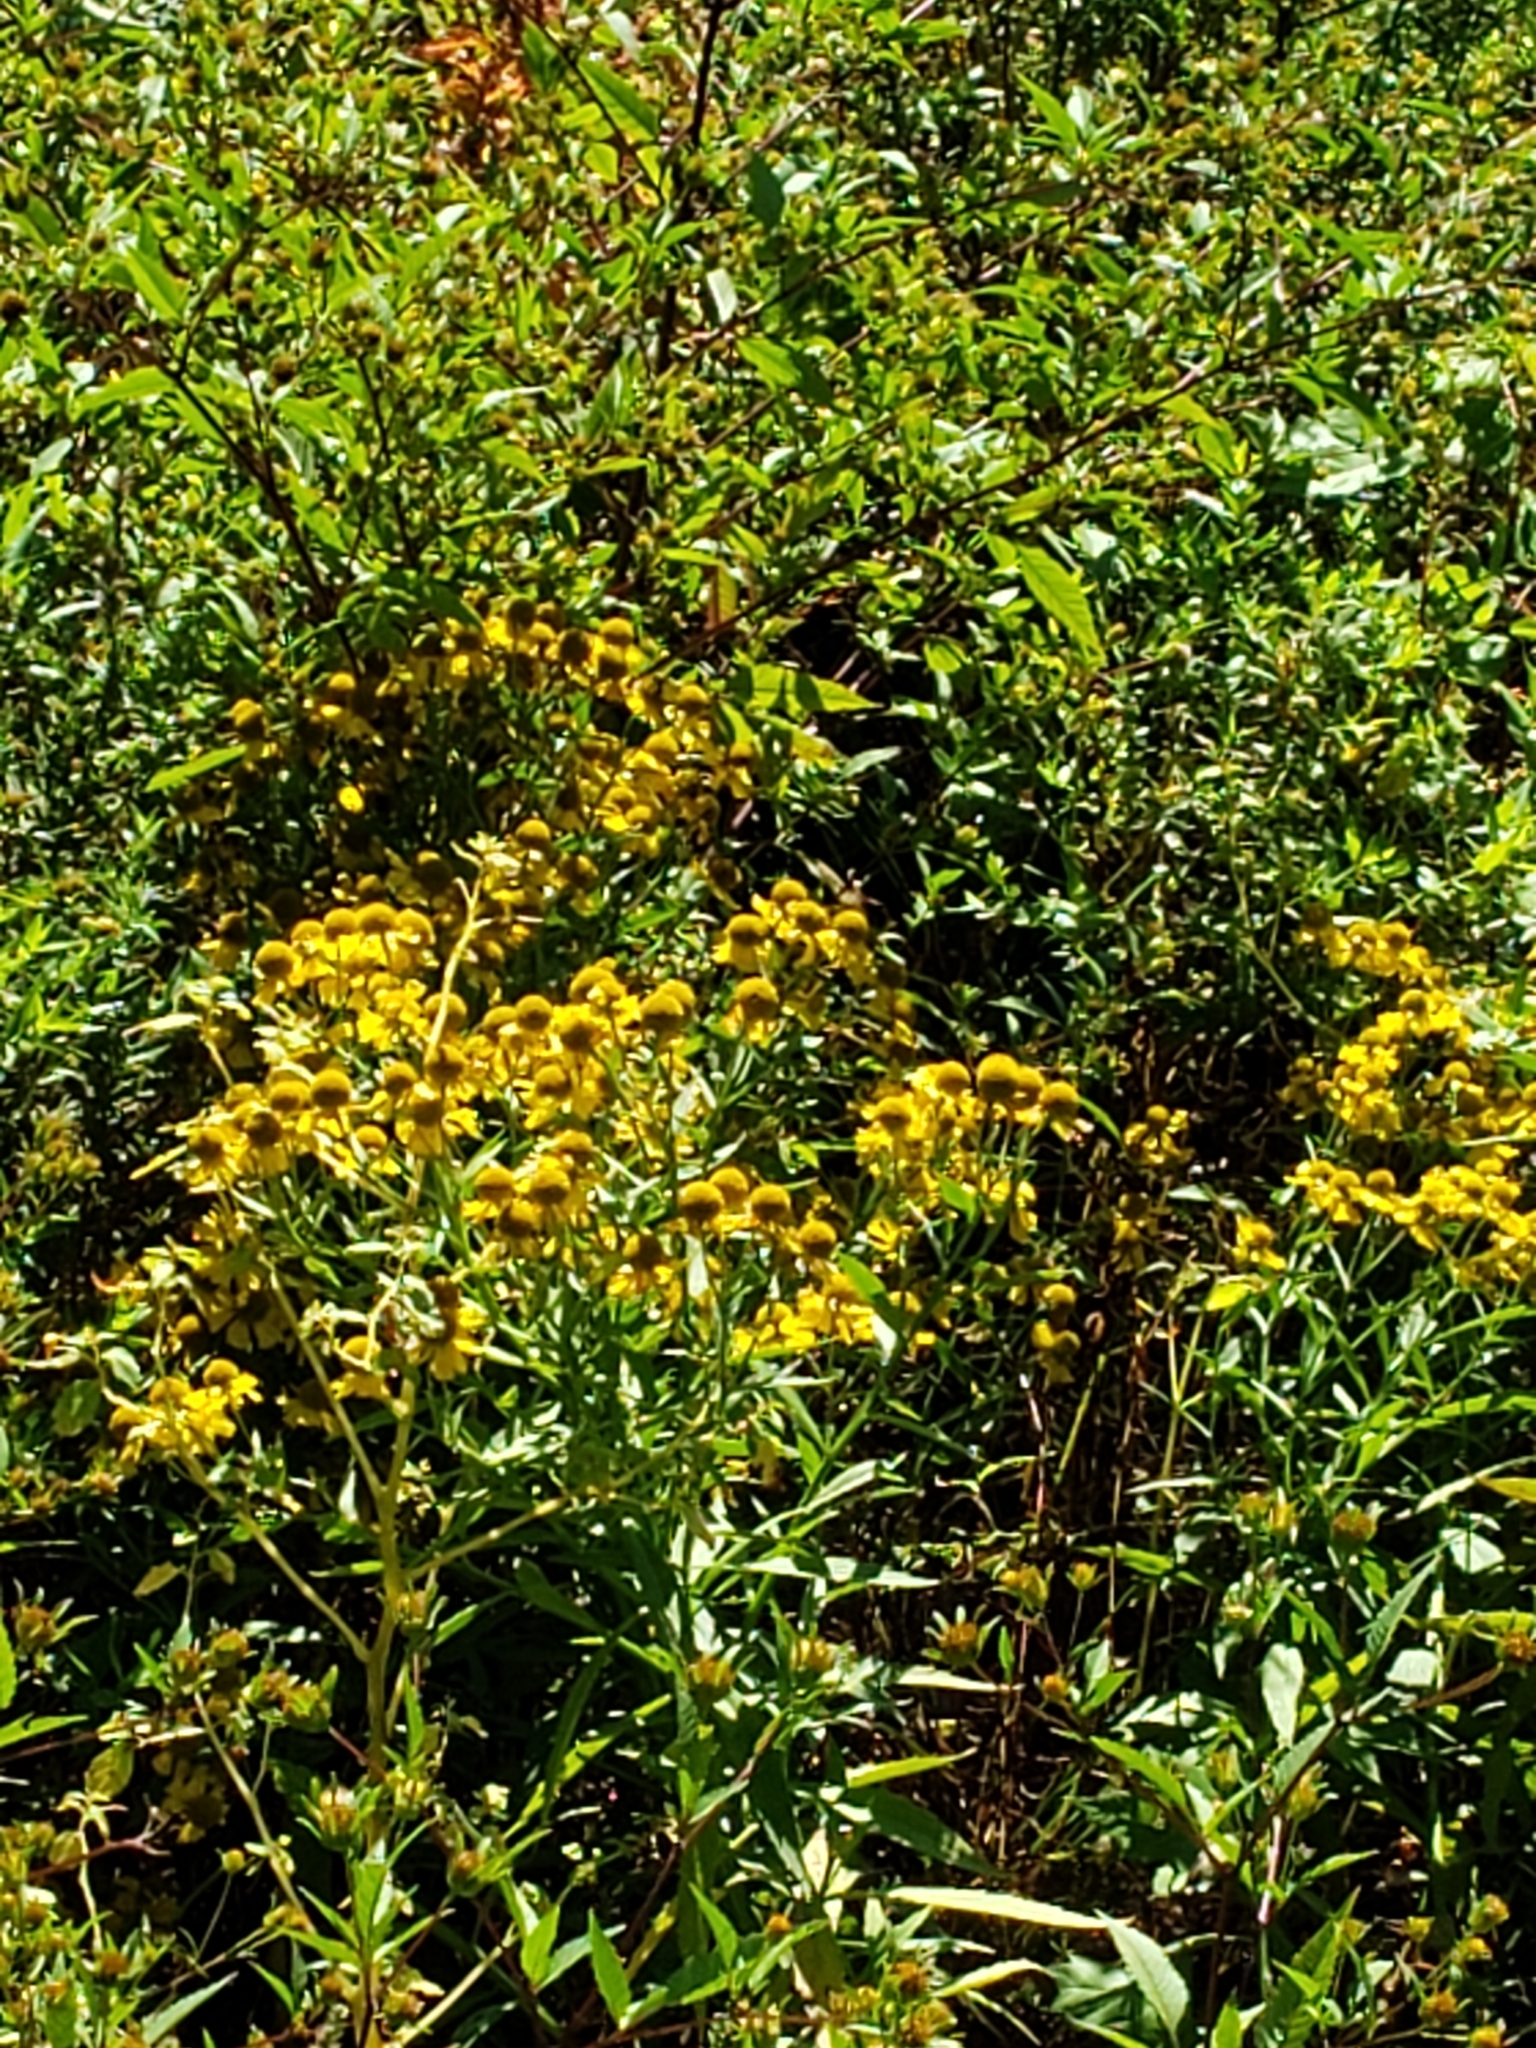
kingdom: Plantae
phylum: Tracheophyta
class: Magnoliopsida
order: Asterales
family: Asteraceae
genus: Helenium
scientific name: Helenium autumnale
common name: Sneezeweed
